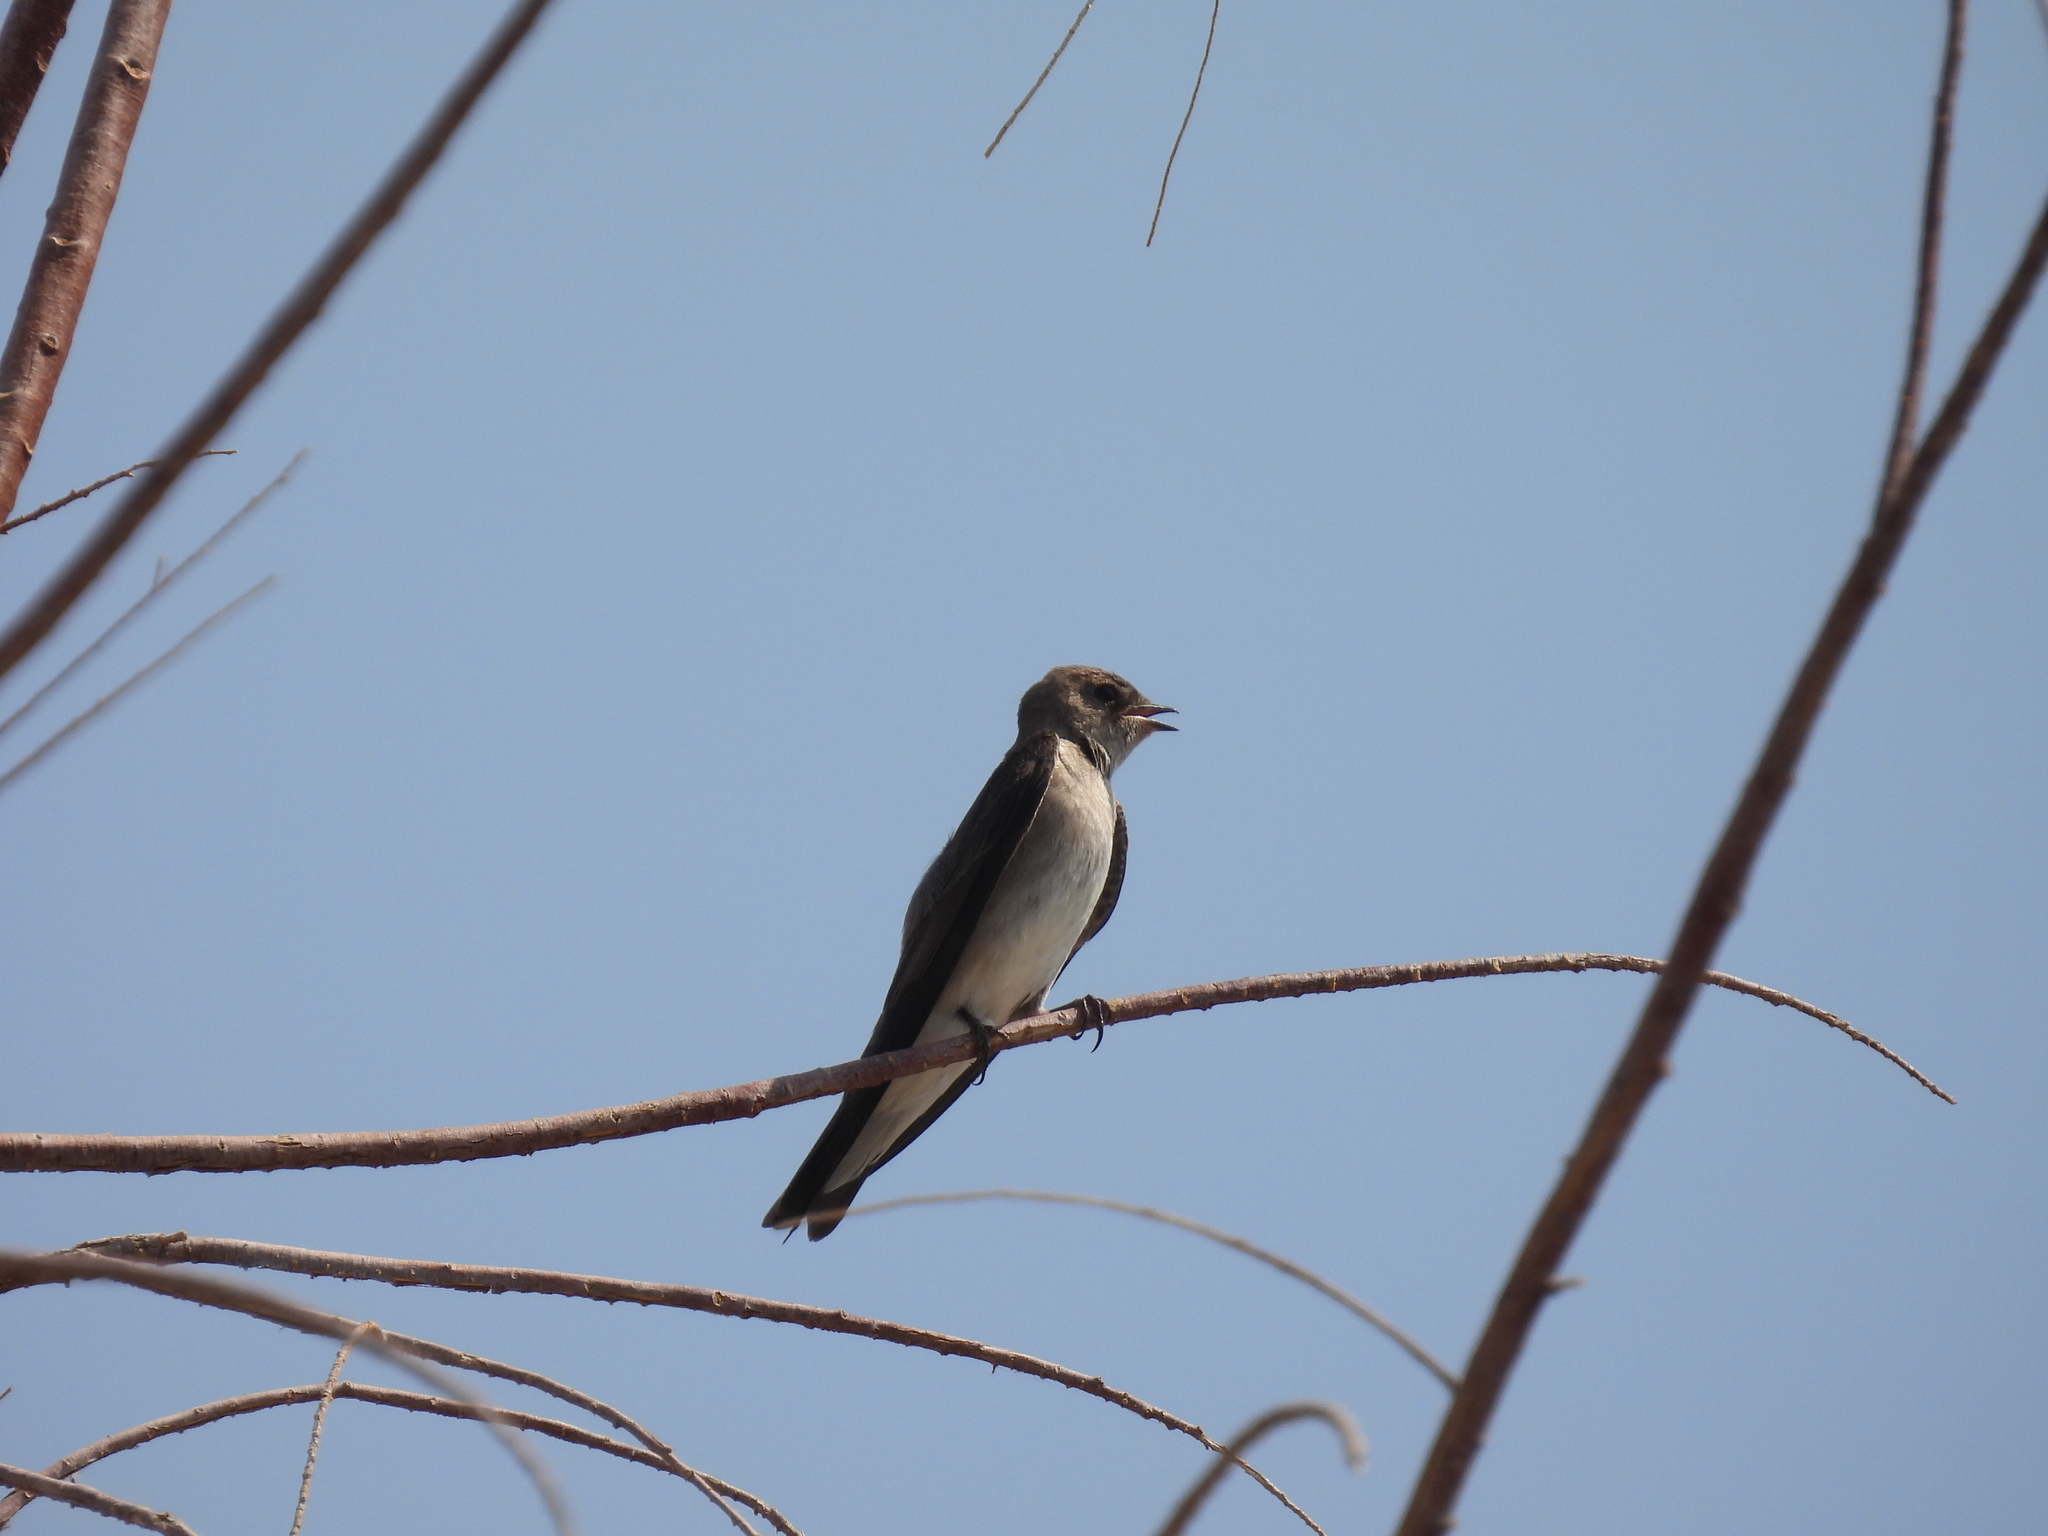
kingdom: Animalia
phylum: Chordata
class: Aves
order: Passeriformes
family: Hirundinidae
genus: Stelgidopteryx
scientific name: Stelgidopteryx serripennis
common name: Northern rough-winged swallow
